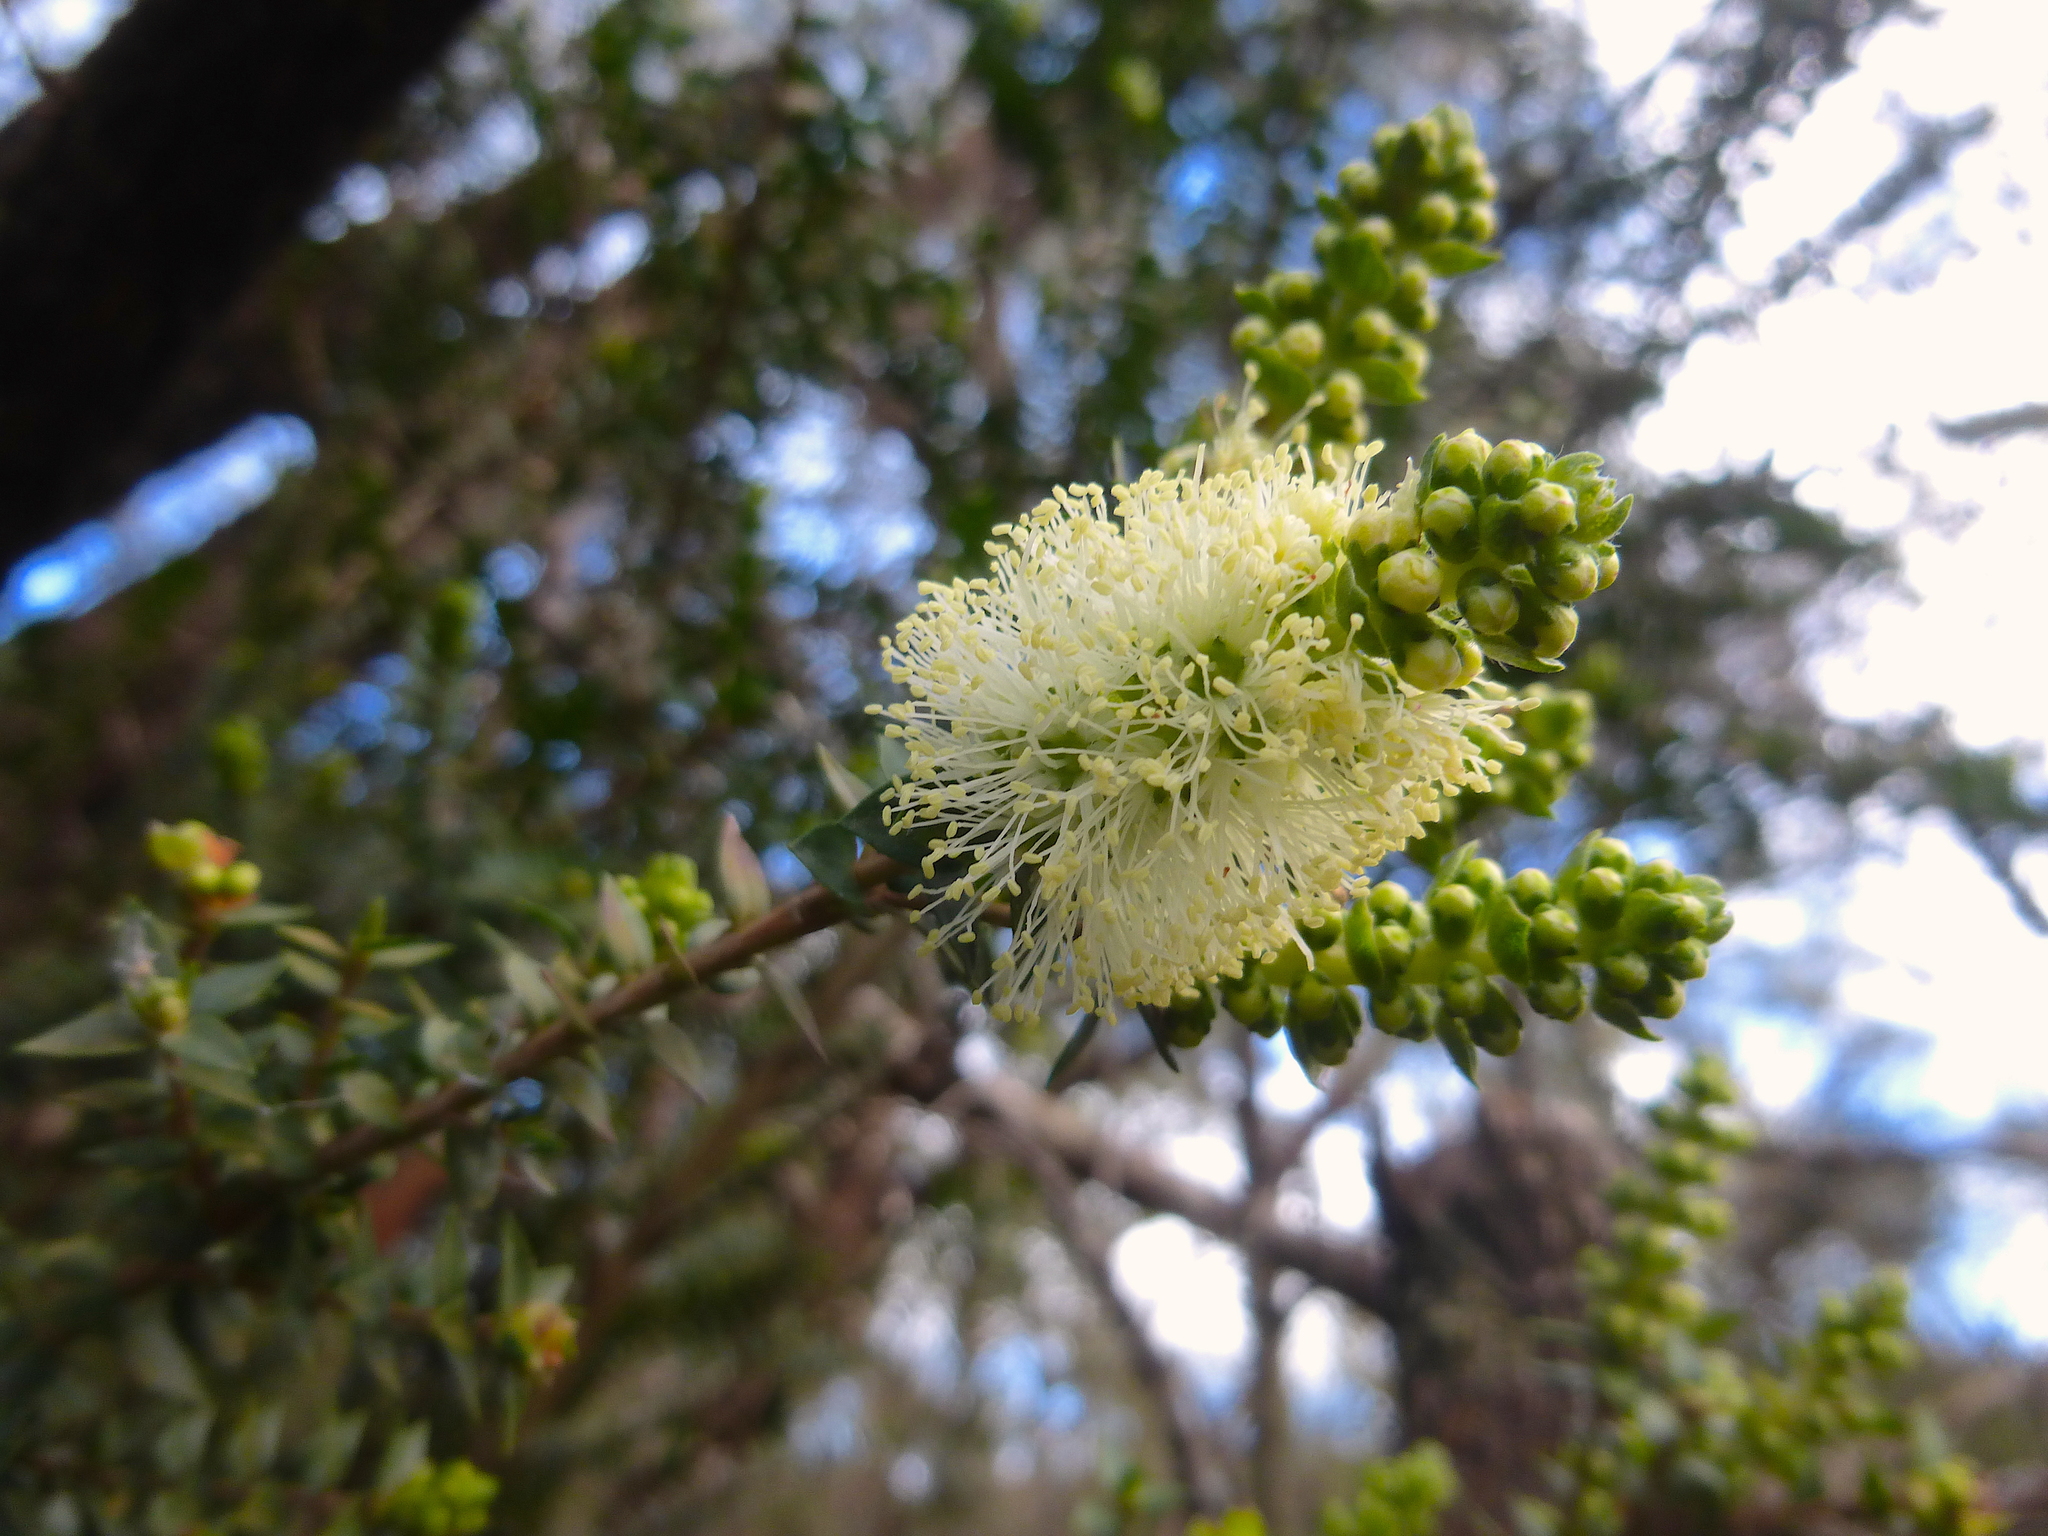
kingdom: Plantae
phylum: Tracheophyta
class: Magnoliopsida
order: Myrtales
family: Myrtaceae
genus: Melaleuca
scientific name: Melaleuca squarrosa
